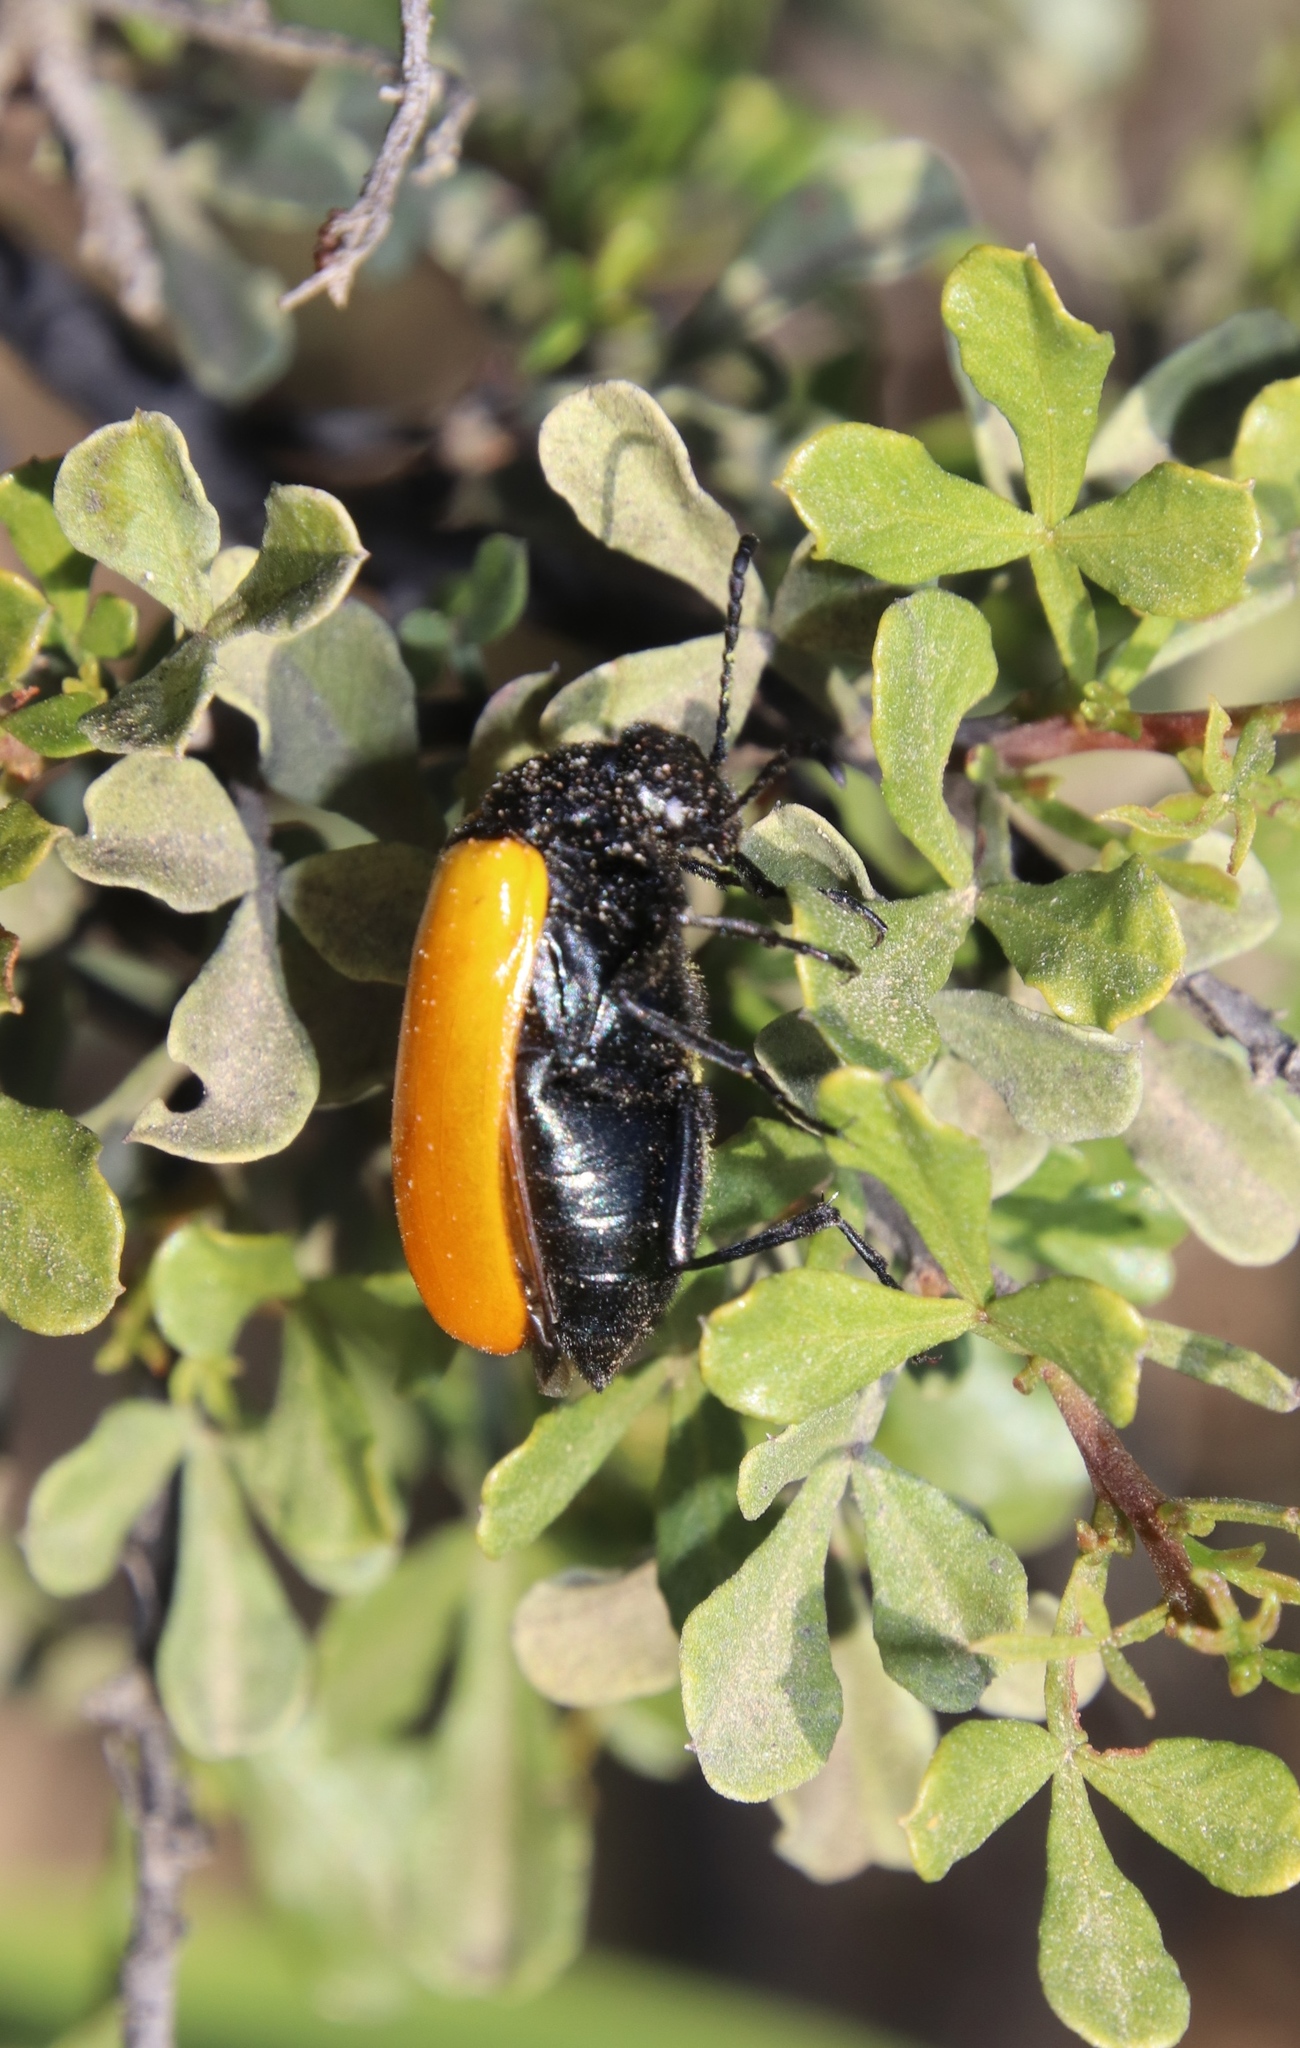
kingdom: Animalia
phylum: Arthropoda
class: Insecta
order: Coleoptera
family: Meloidae
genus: Prolytta
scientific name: Prolytta coriacea
